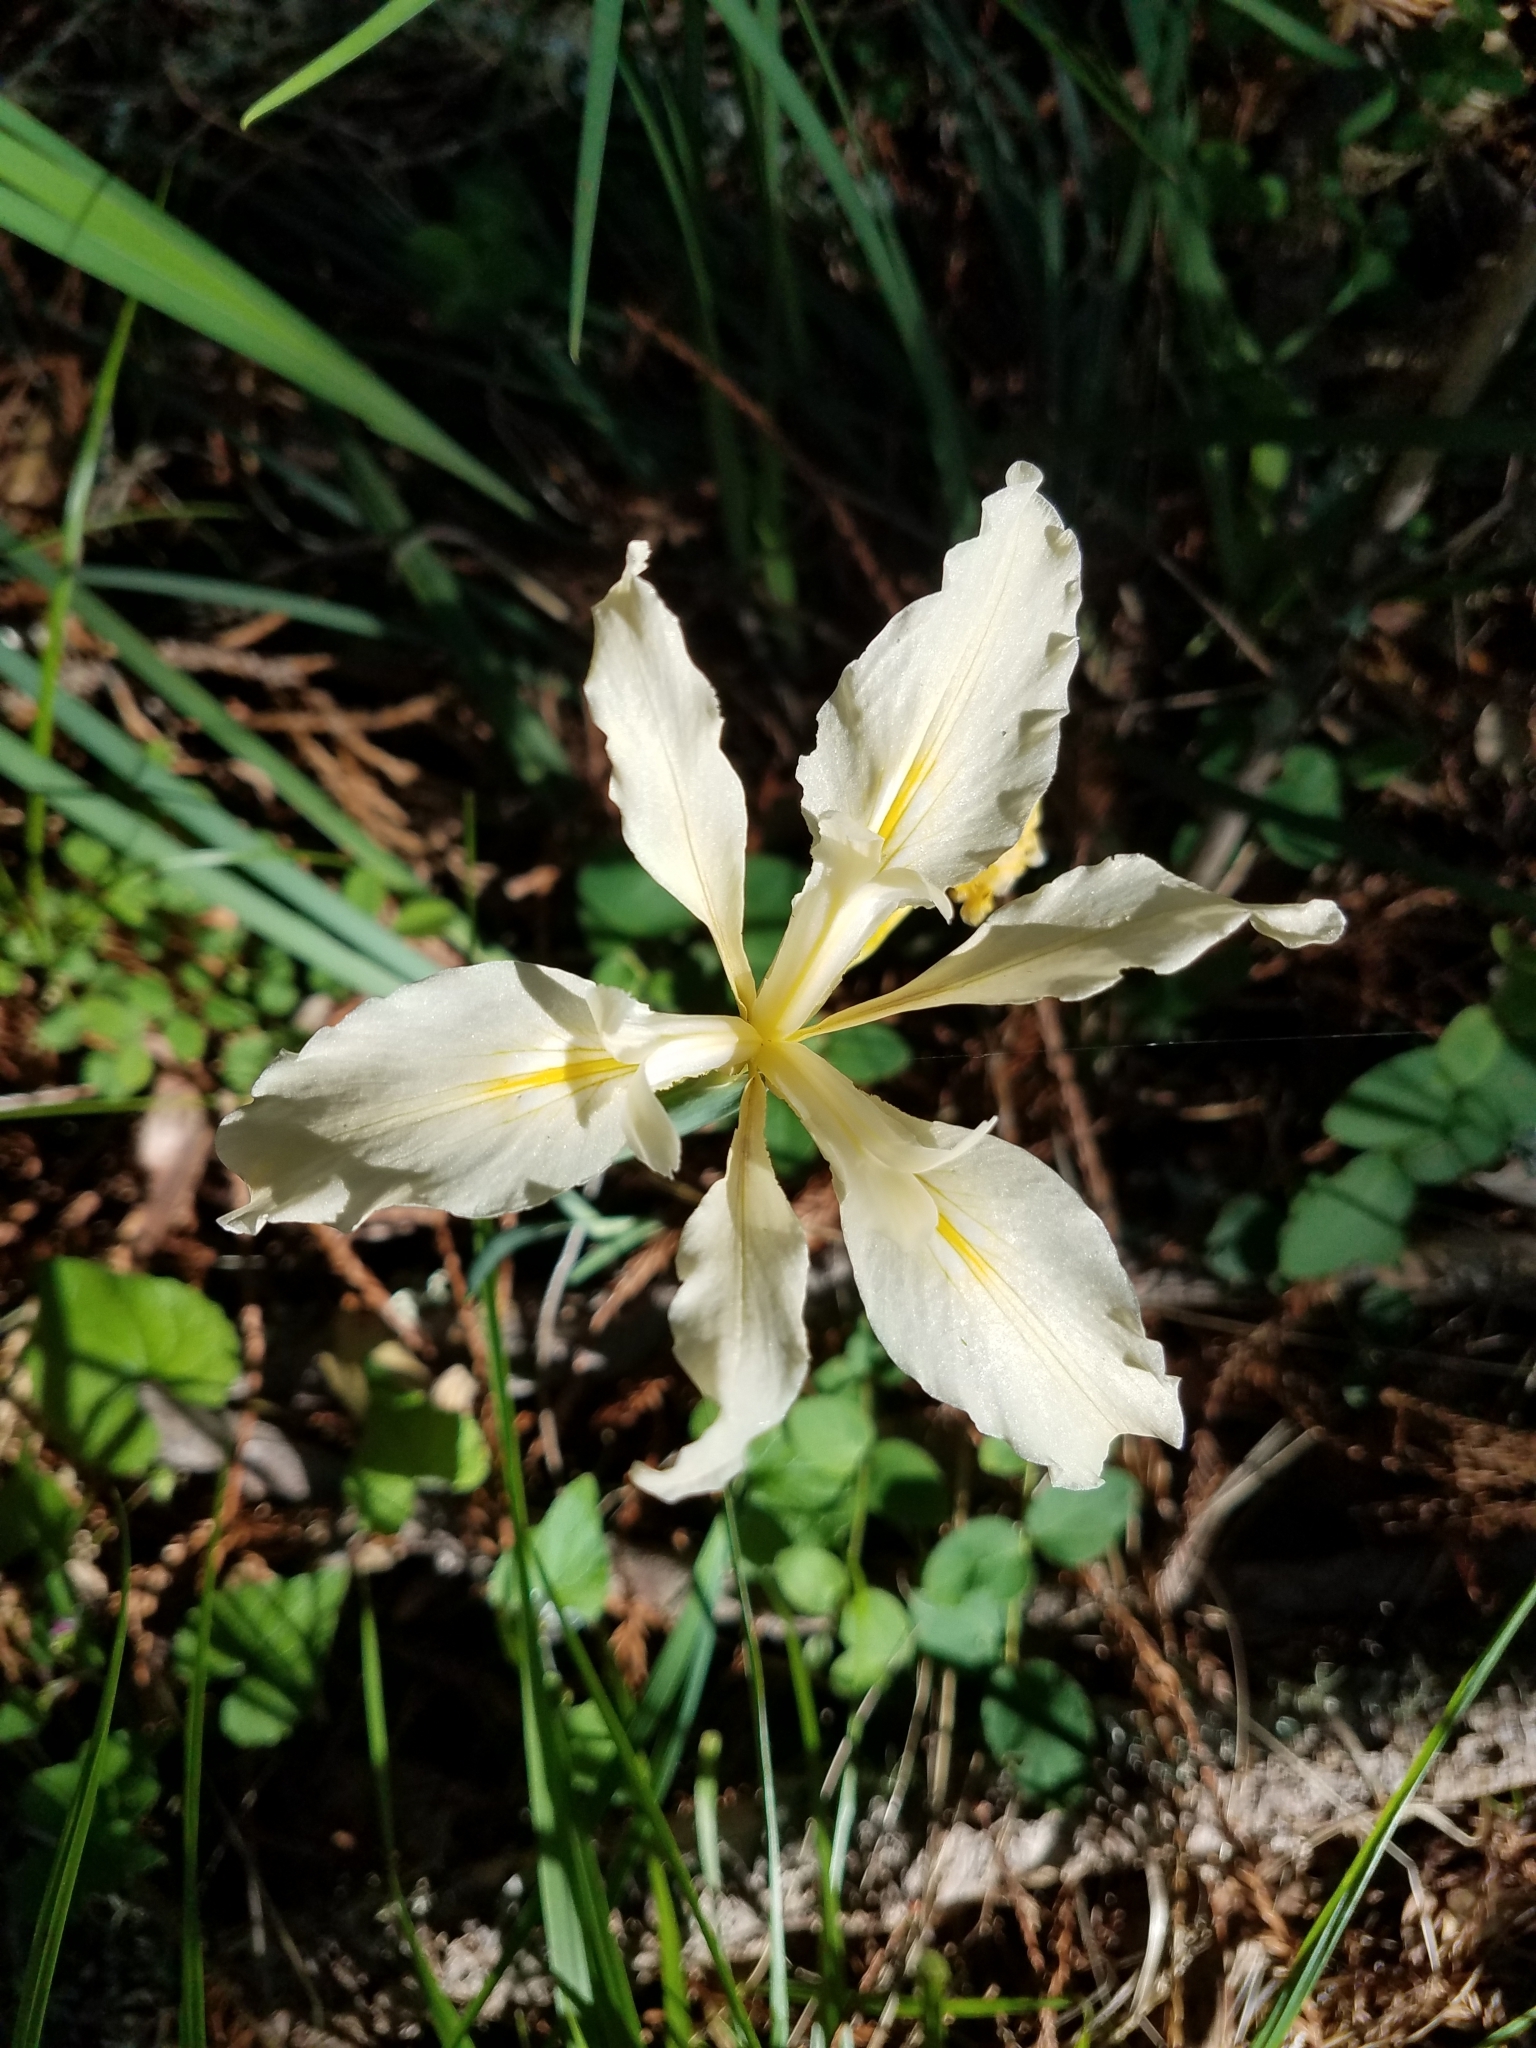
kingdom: Plantae
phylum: Tracheophyta
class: Liliopsida
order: Asparagales
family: Iridaceae
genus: Iris
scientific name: Iris fernaldii
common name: Fernald's iris
